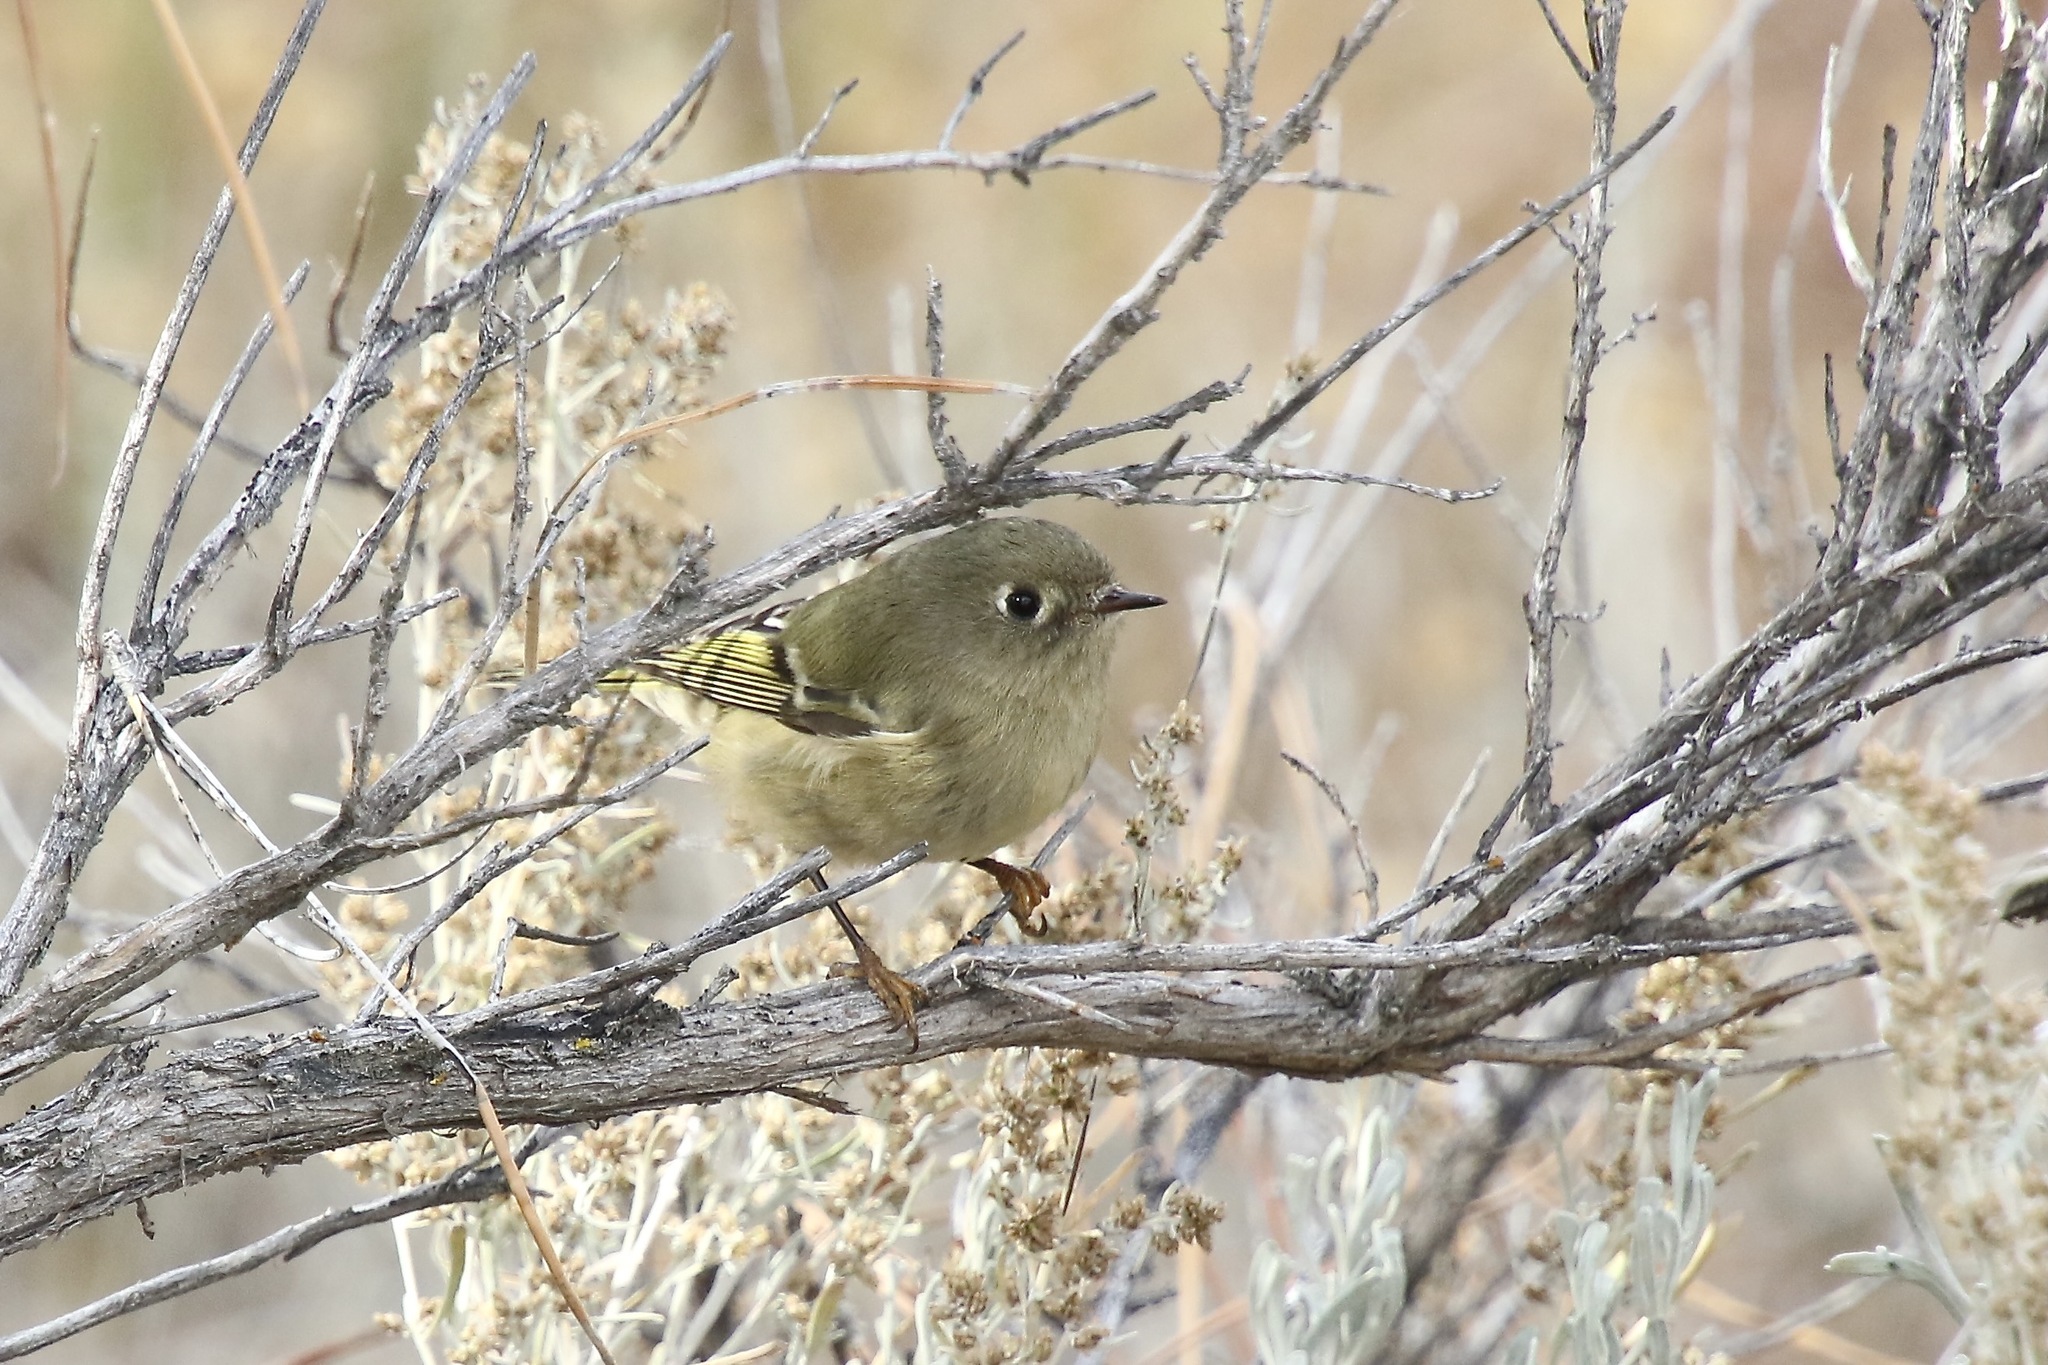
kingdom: Animalia
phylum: Chordata
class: Aves
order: Passeriformes
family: Regulidae
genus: Regulus
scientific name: Regulus calendula
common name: Ruby-crowned kinglet
